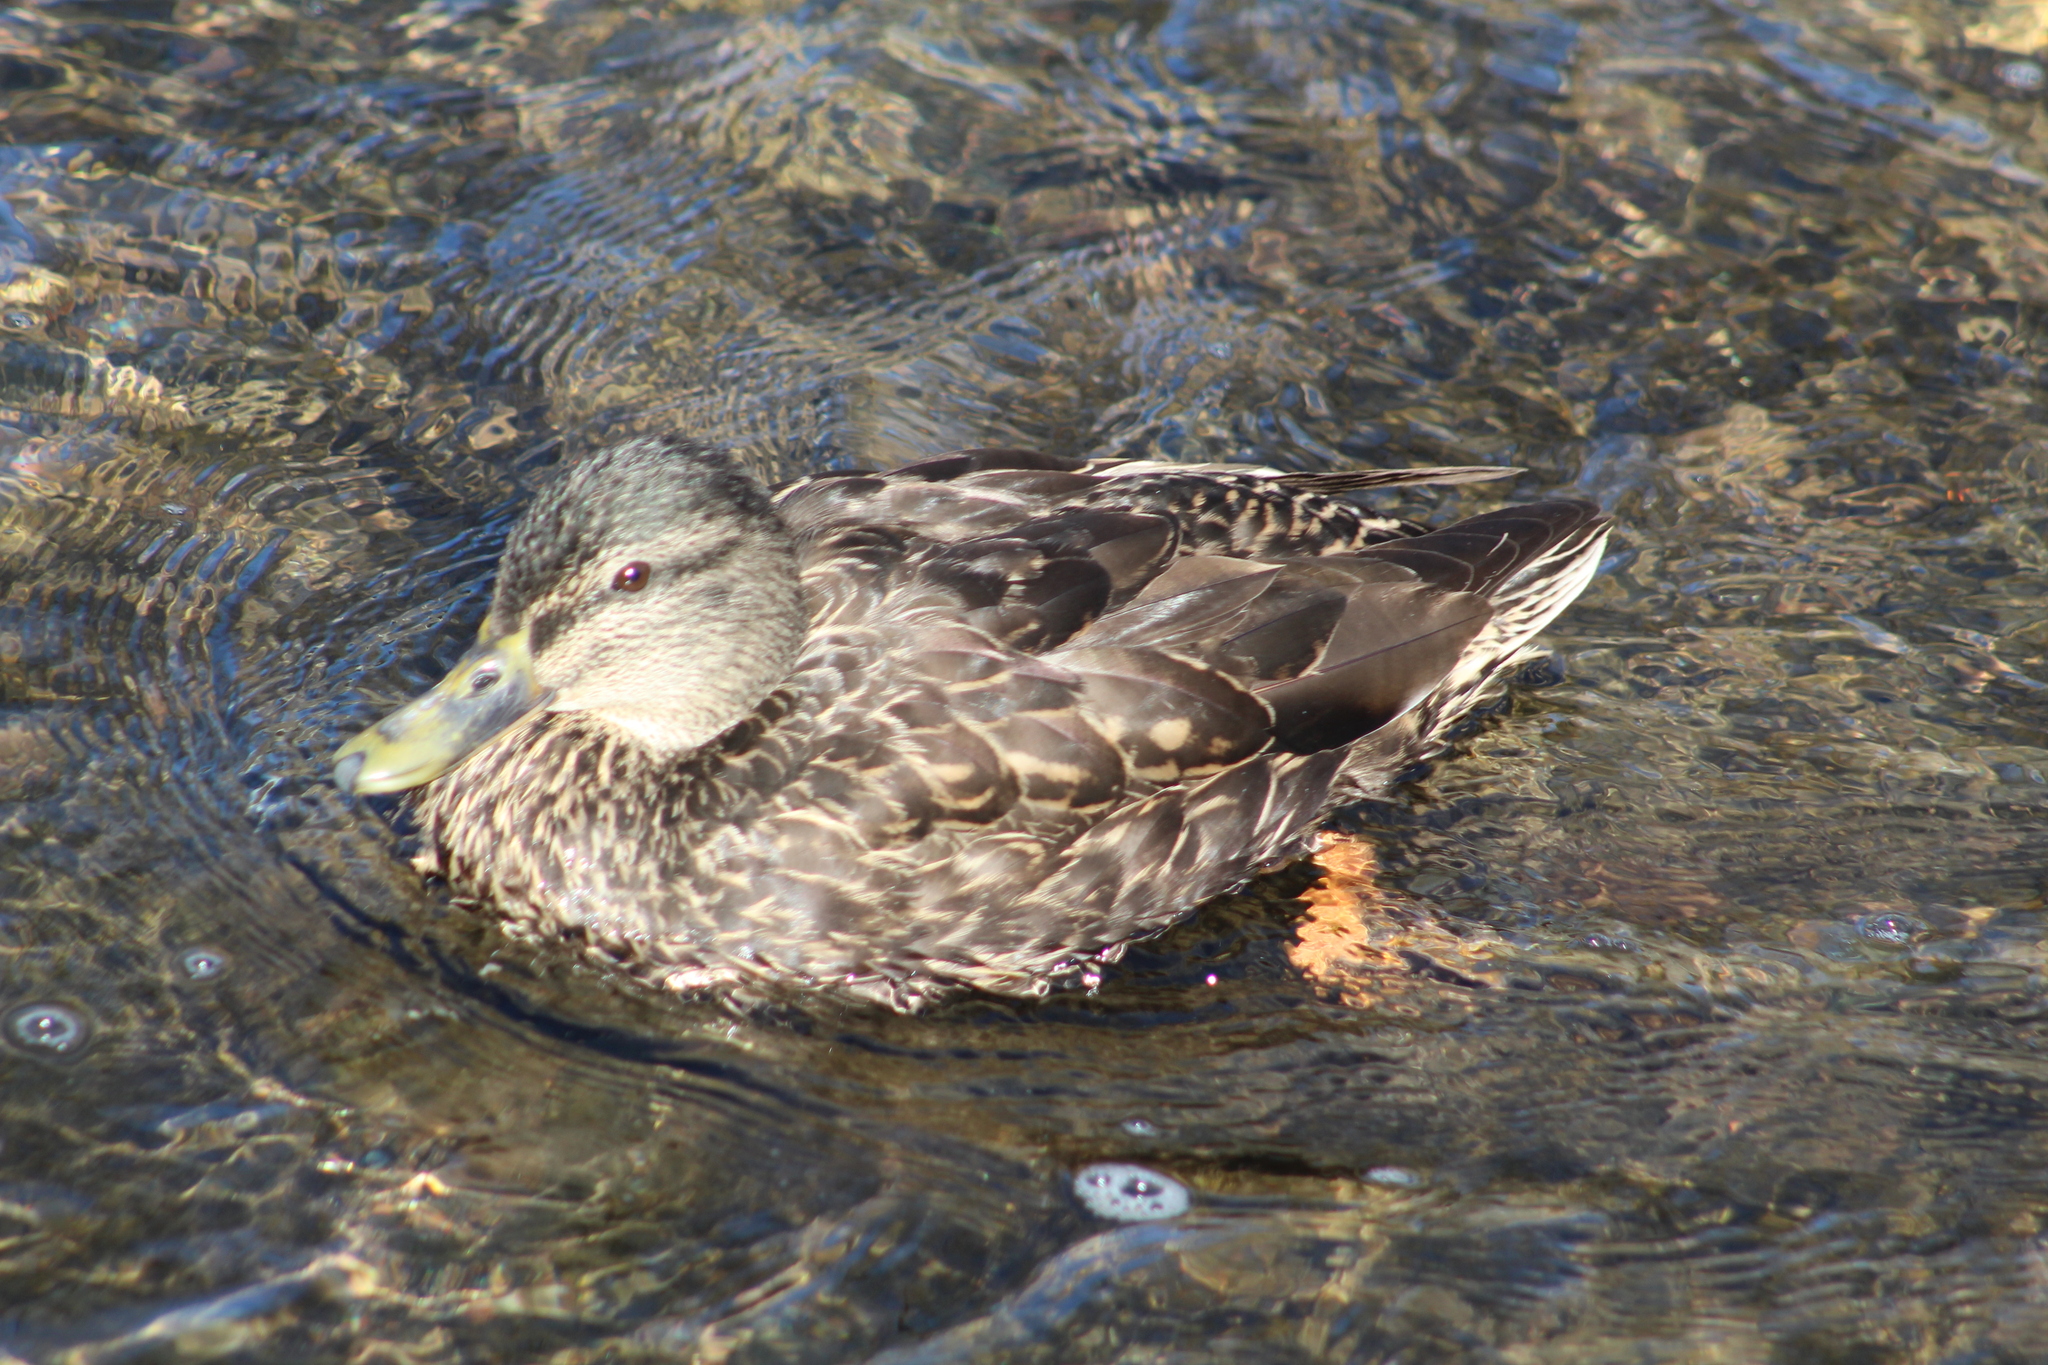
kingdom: Animalia
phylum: Chordata
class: Aves
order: Anseriformes
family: Anatidae
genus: Anas
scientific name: Anas platyrhynchos
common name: Mallard
